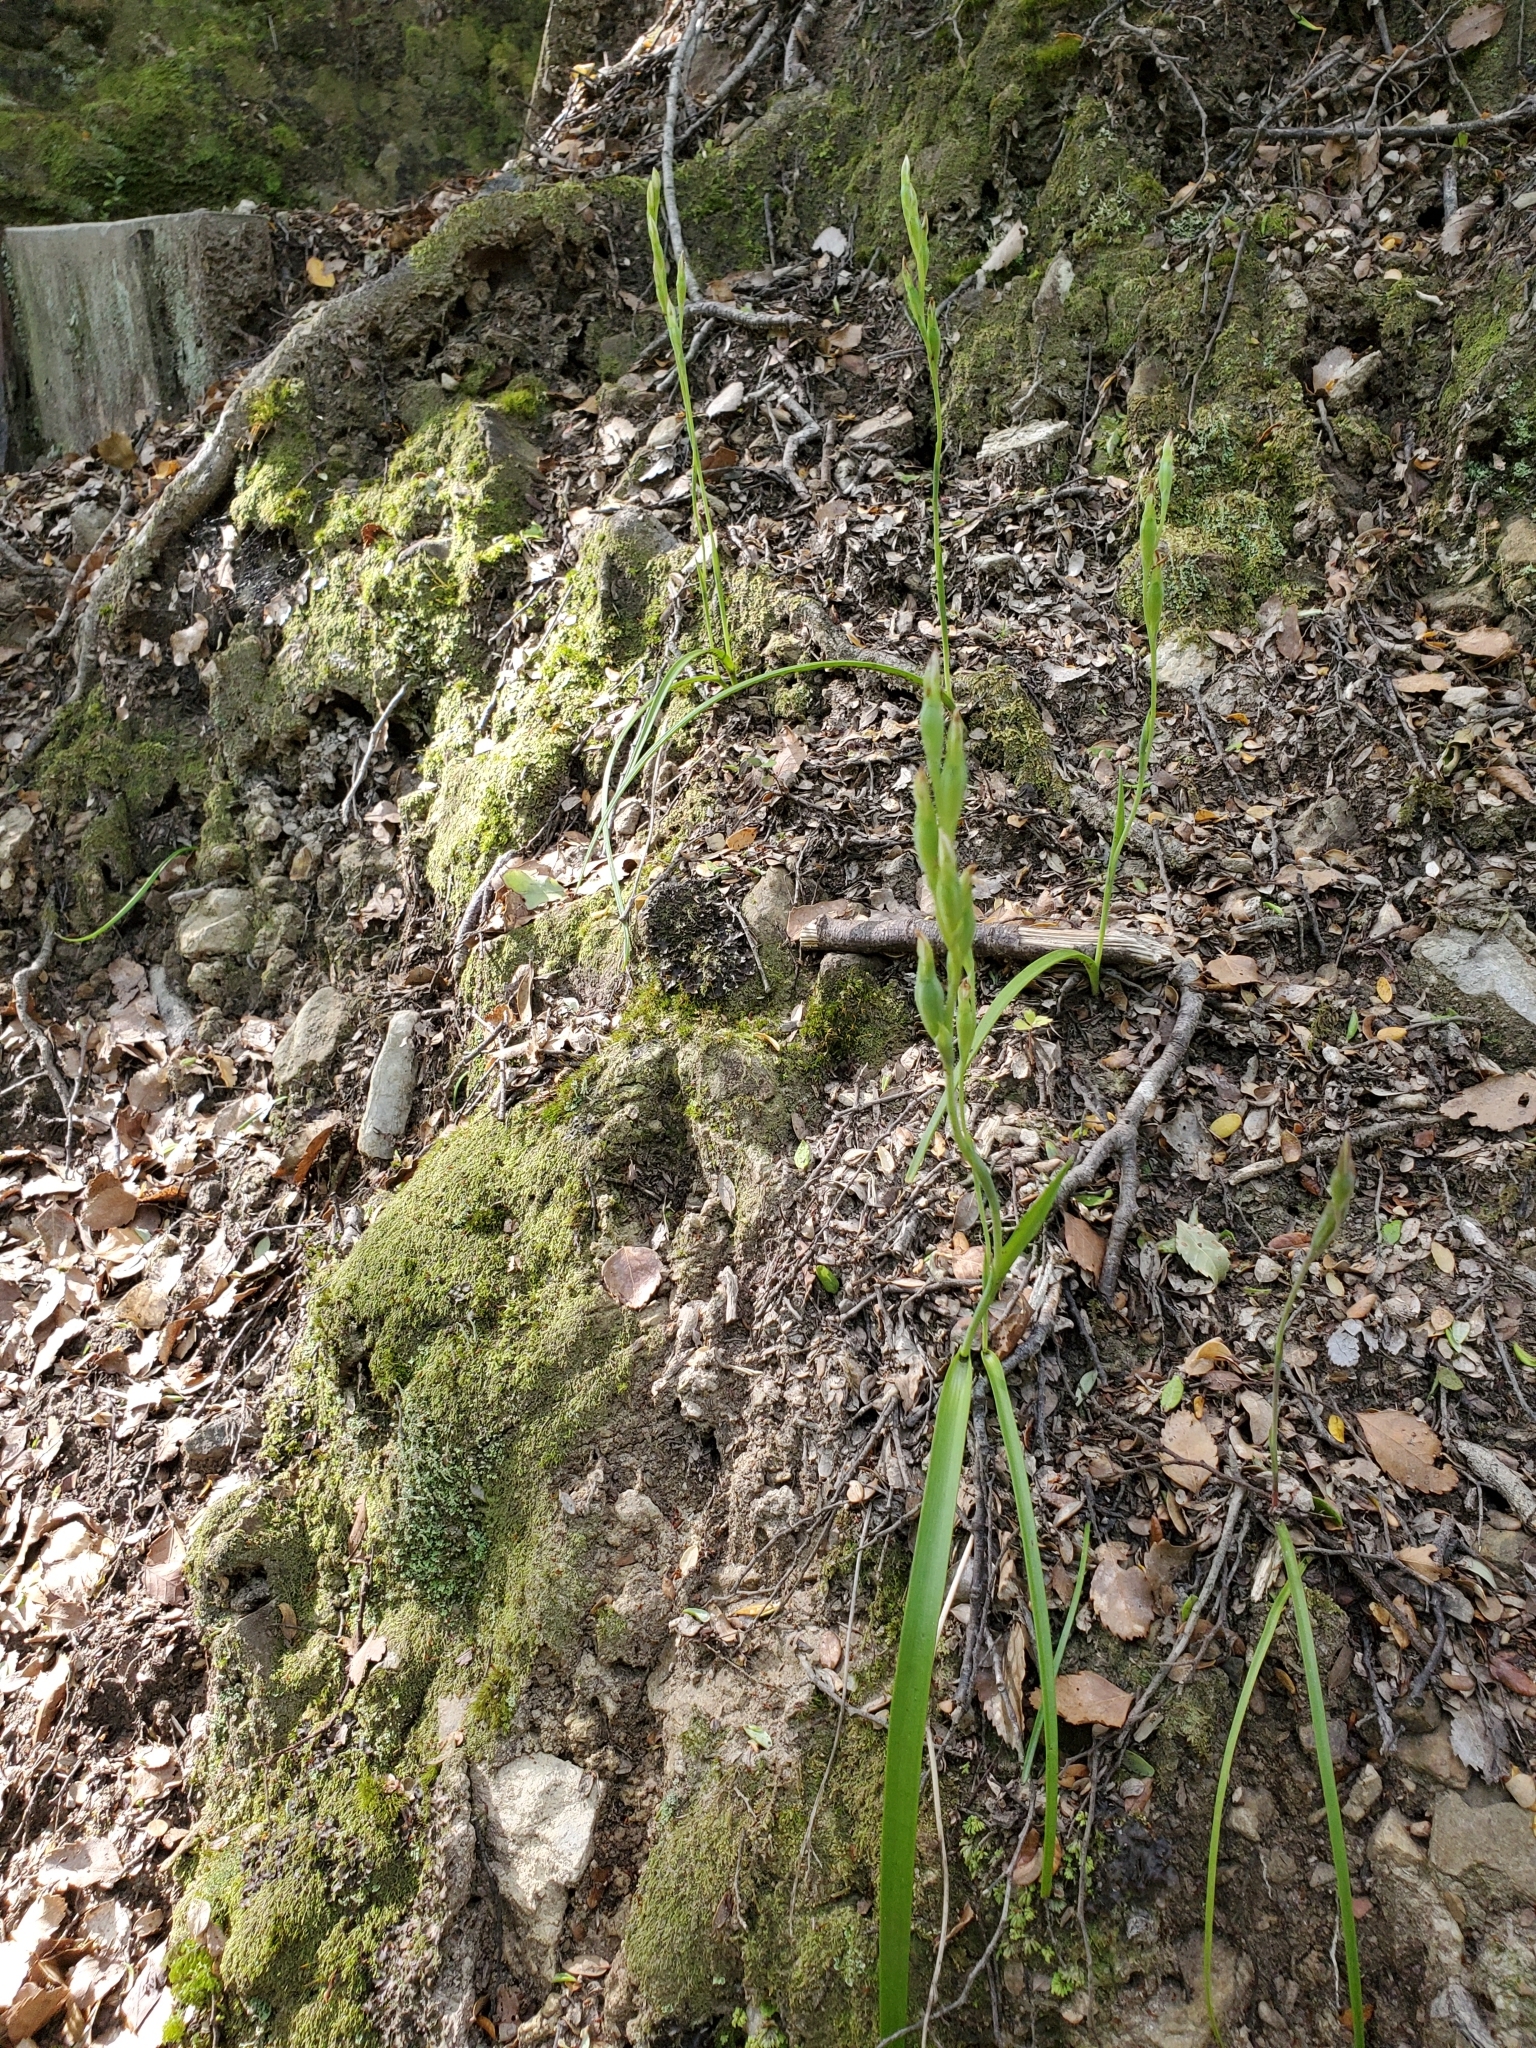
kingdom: Plantae
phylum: Tracheophyta
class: Liliopsida
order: Asparagales
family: Orchidaceae
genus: Thelymitra
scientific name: Thelymitra longifolia
